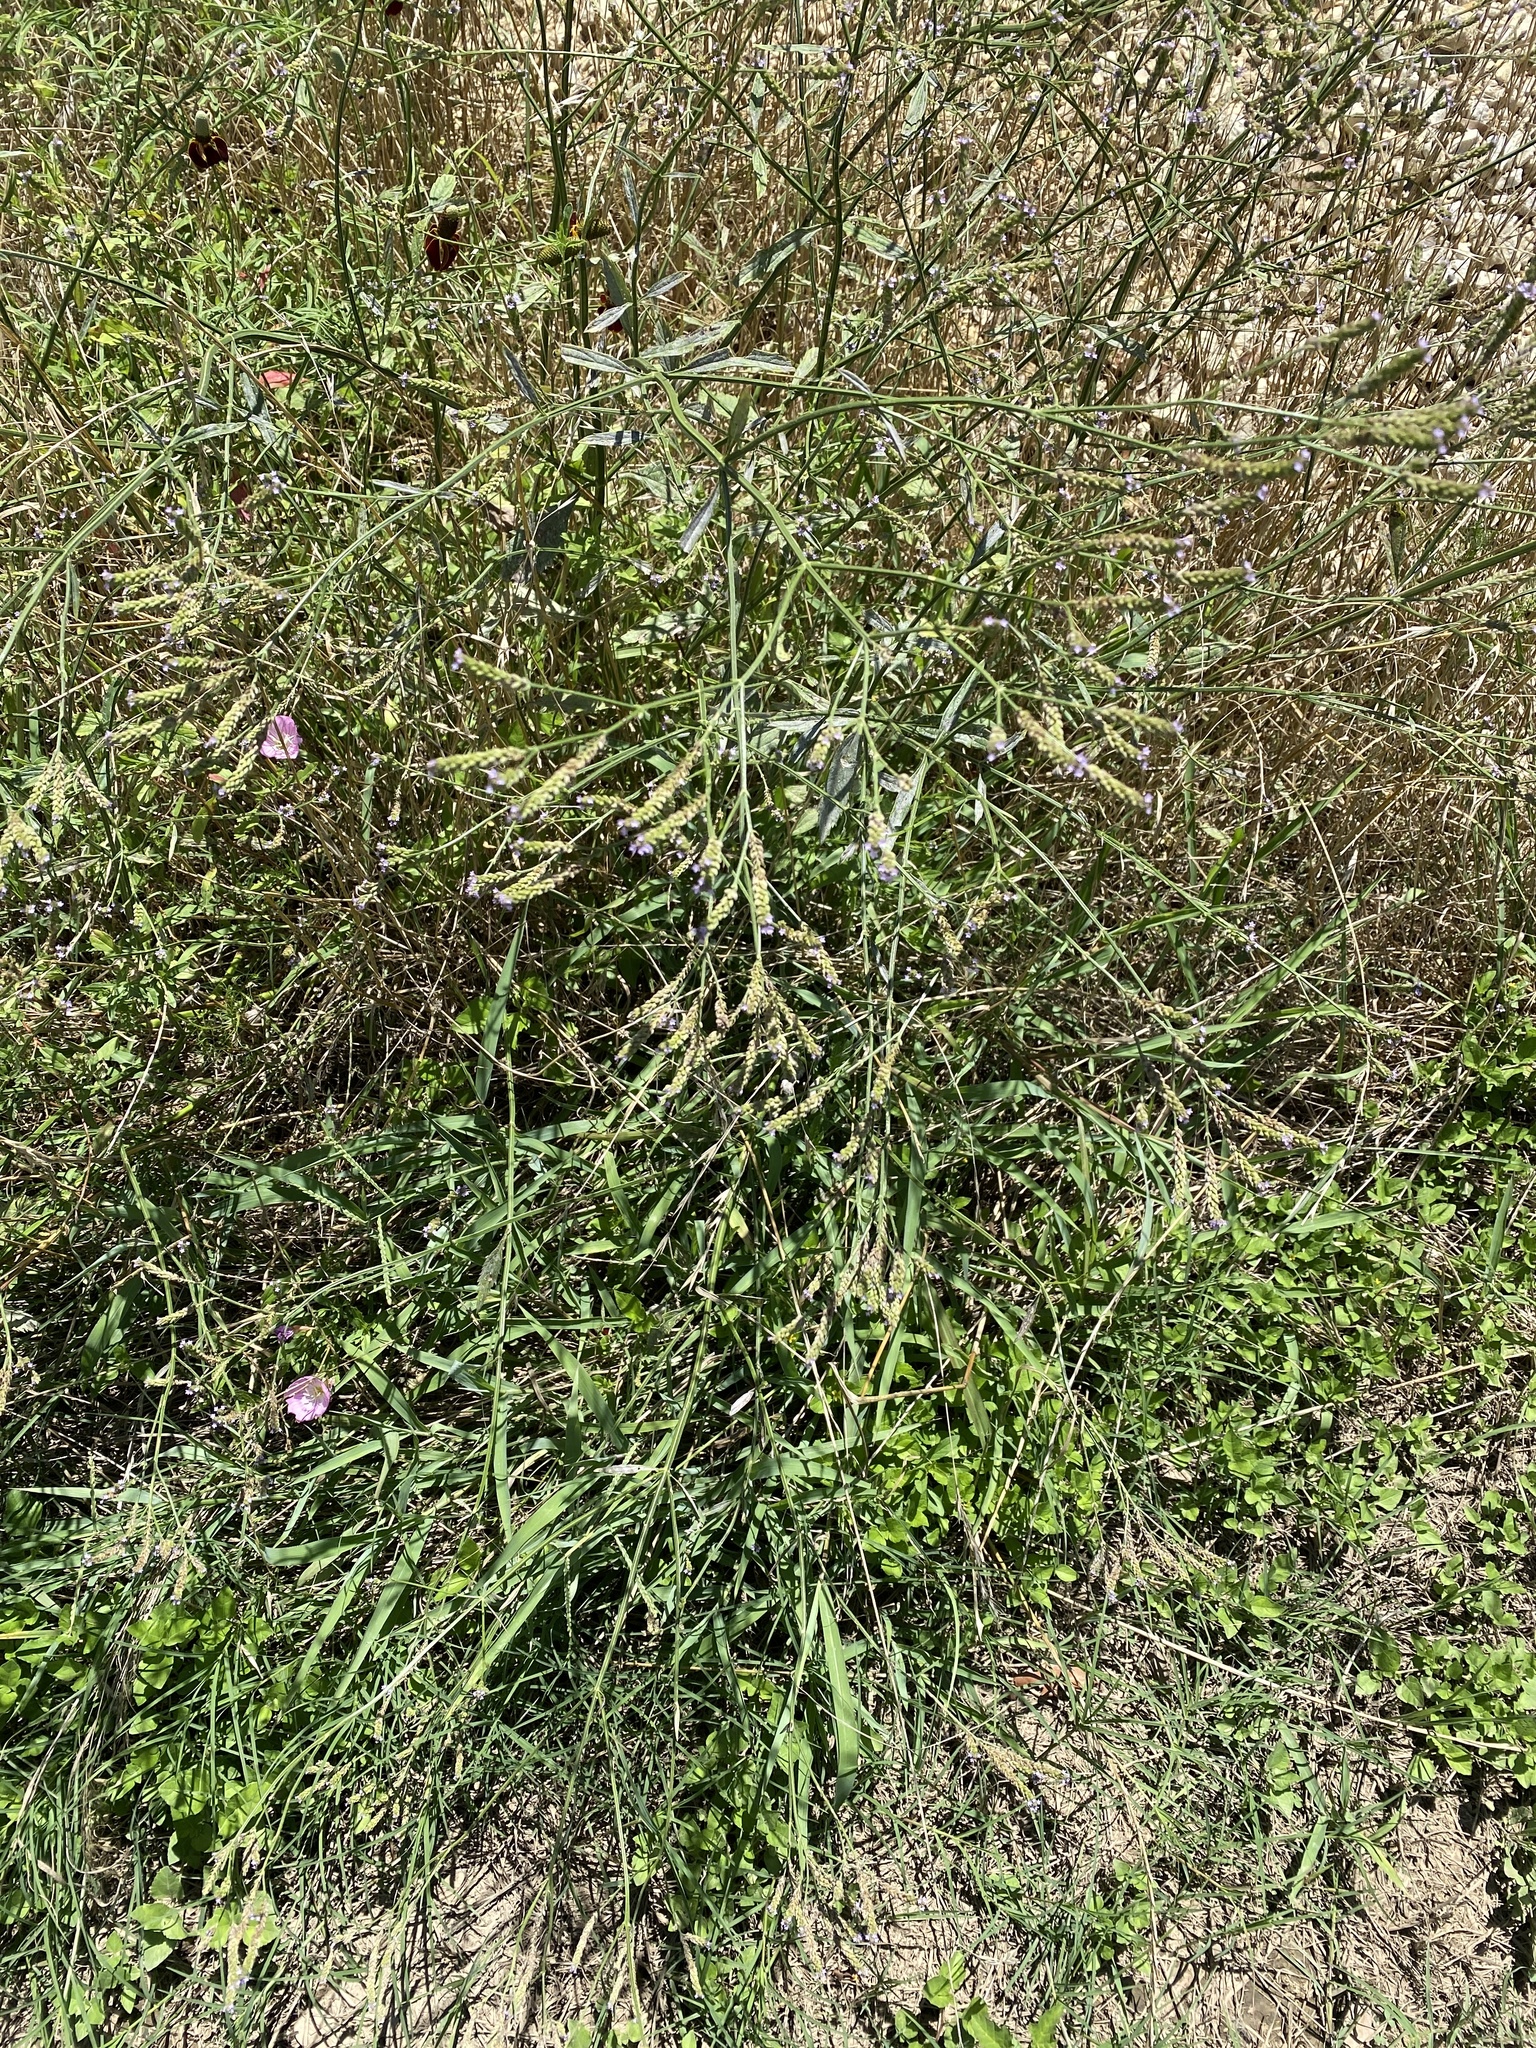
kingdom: Plantae
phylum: Tracheophyta
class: Magnoliopsida
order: Lamiales
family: Verbenaceae
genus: Verbena
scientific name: Verbena brasiliensis
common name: Brazilian vervain
